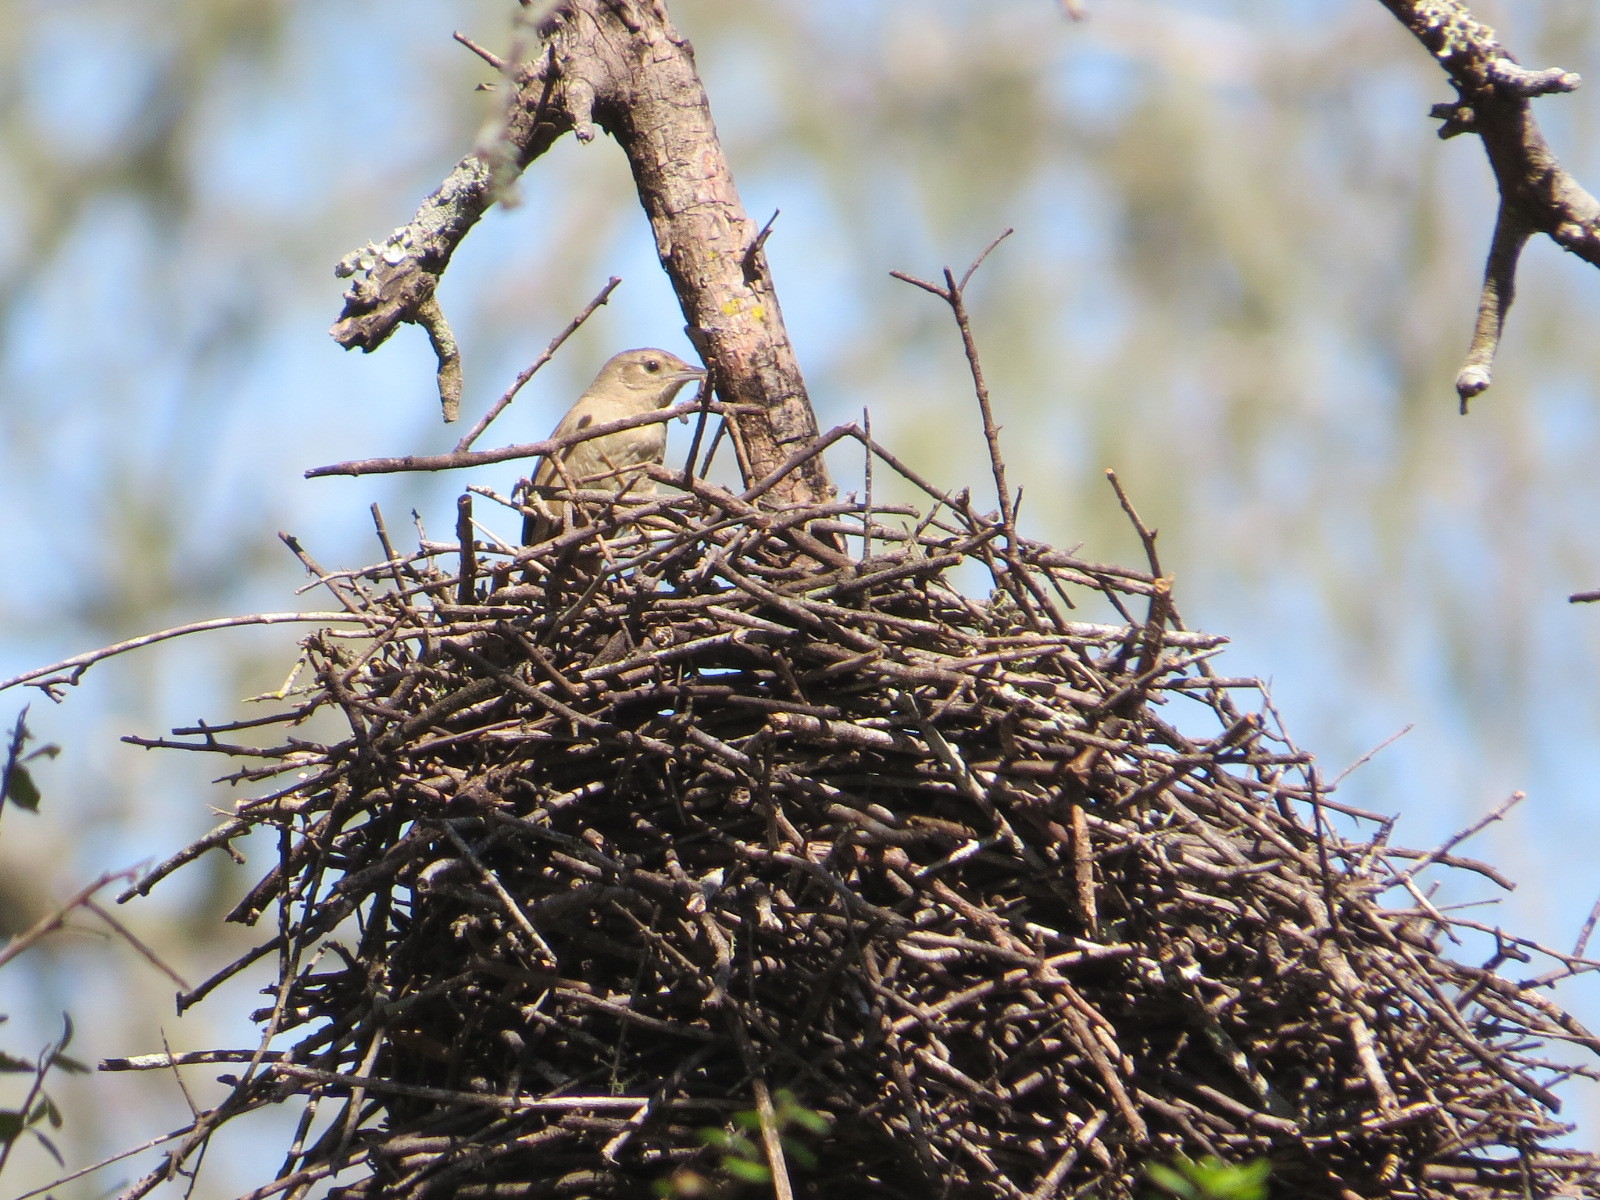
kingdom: Animalia
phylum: Chordata
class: Aves
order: Passeriformes
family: Furnariidae
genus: Phacellodomus
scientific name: Phacellodomus sibilatrix
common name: Little thornbird
